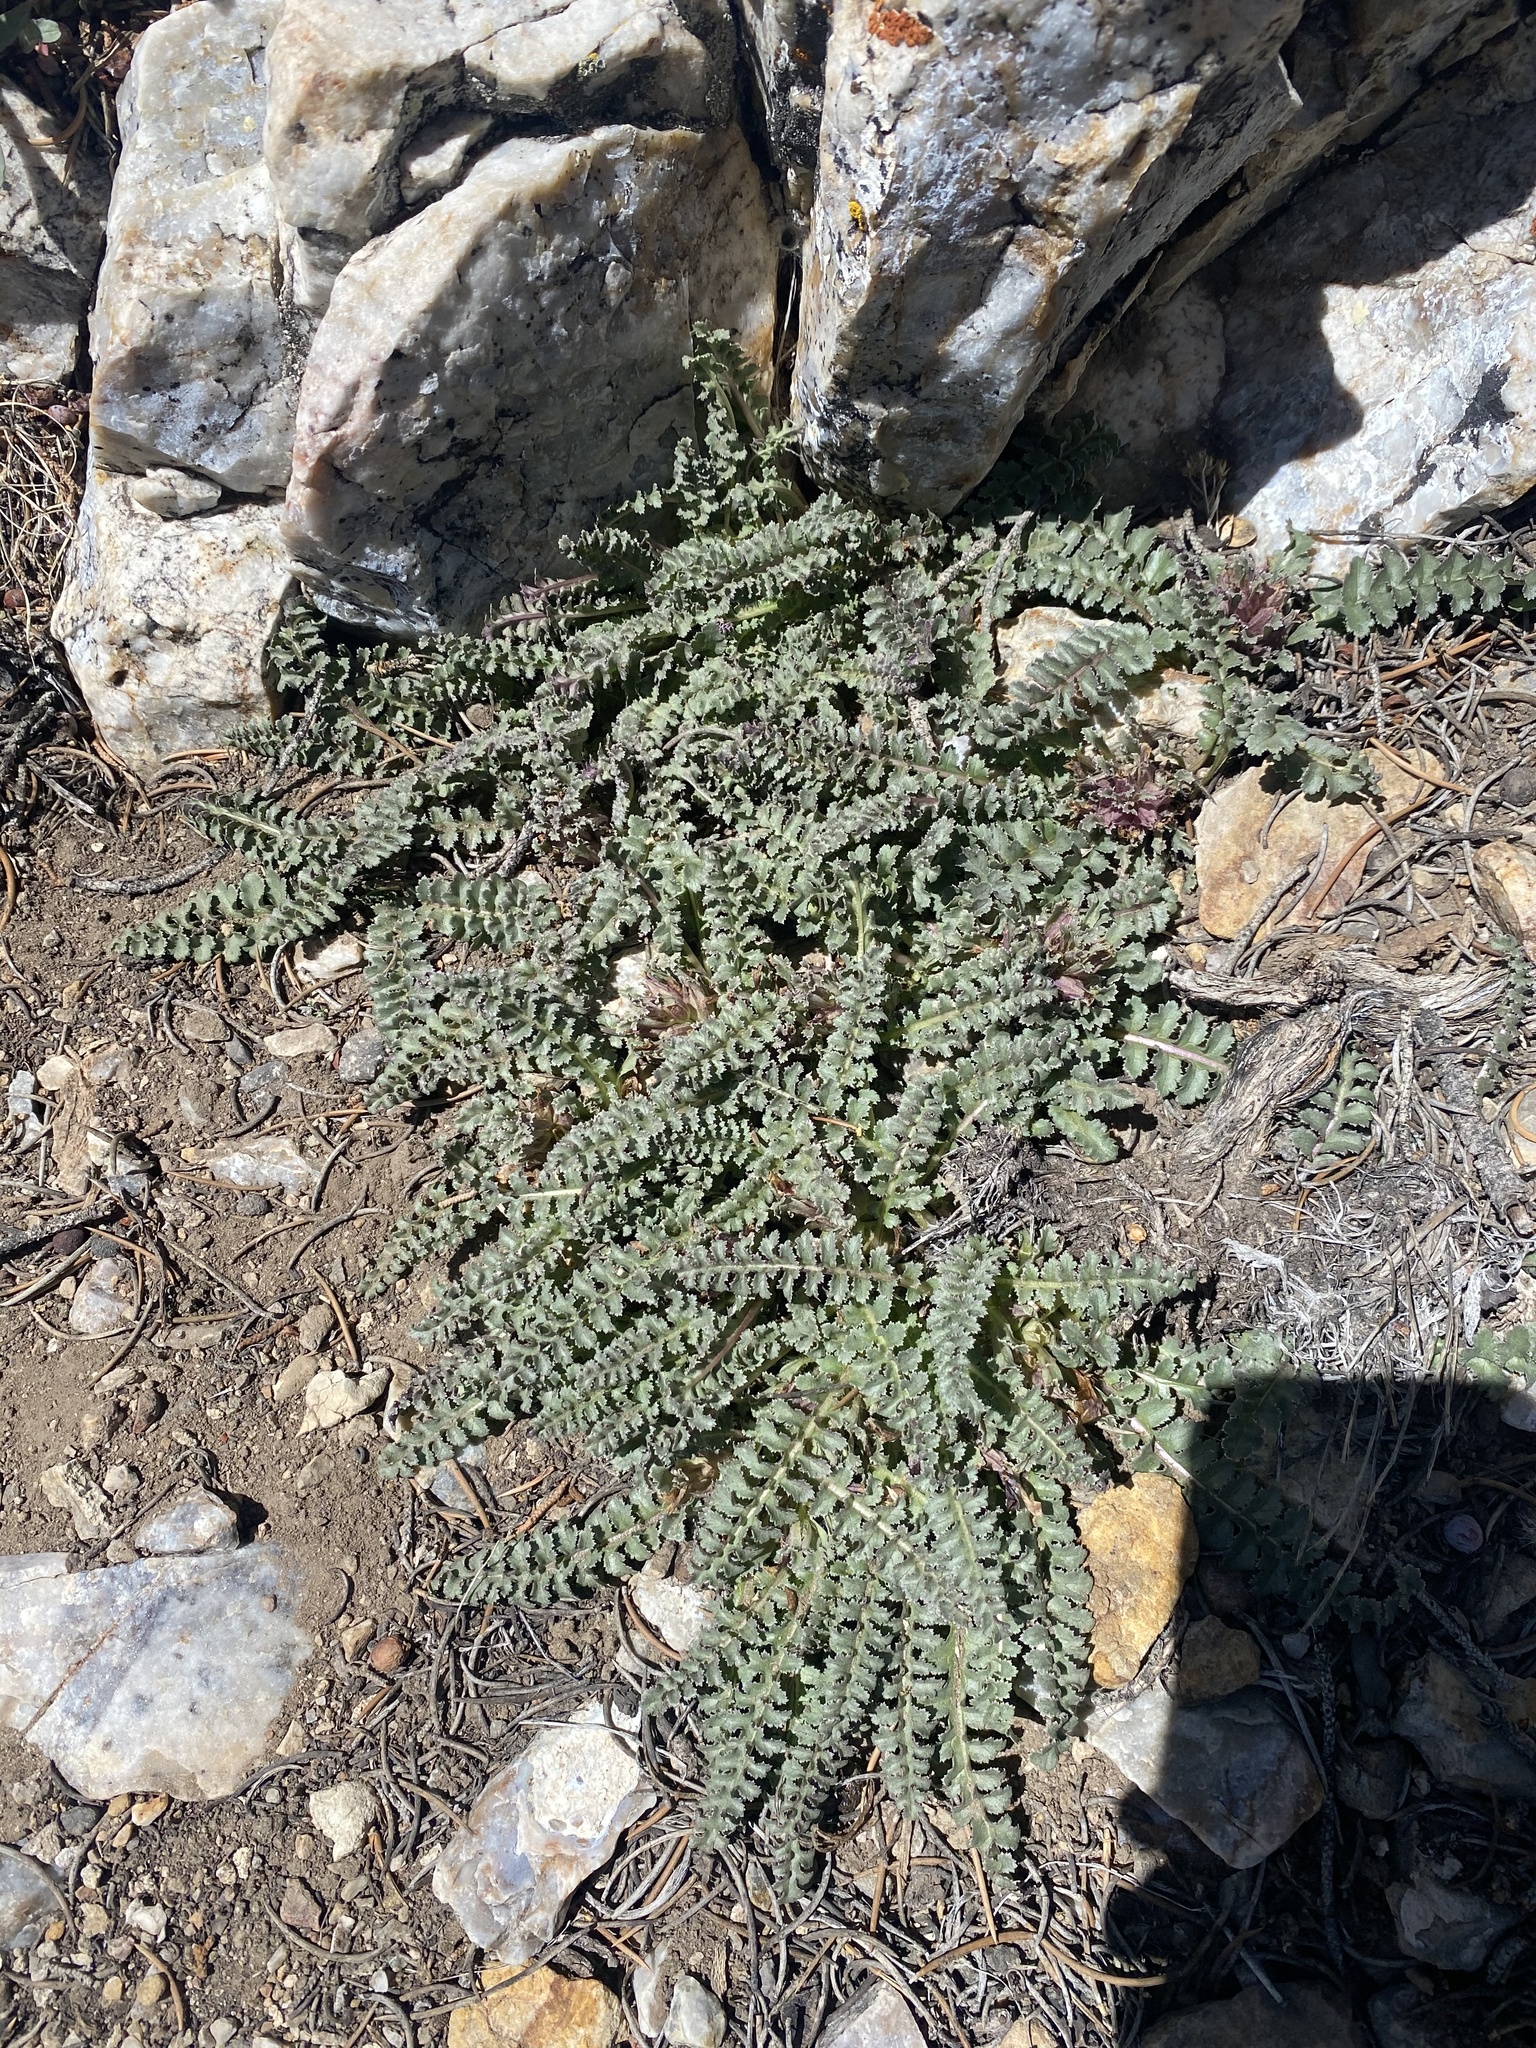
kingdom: Plantae
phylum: Tracheophyta
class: Magnoliopsida
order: Lamiales
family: Orobanchaceae
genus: Pedicularis
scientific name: Pedicularis centranthera
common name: Dwarf lousewort
